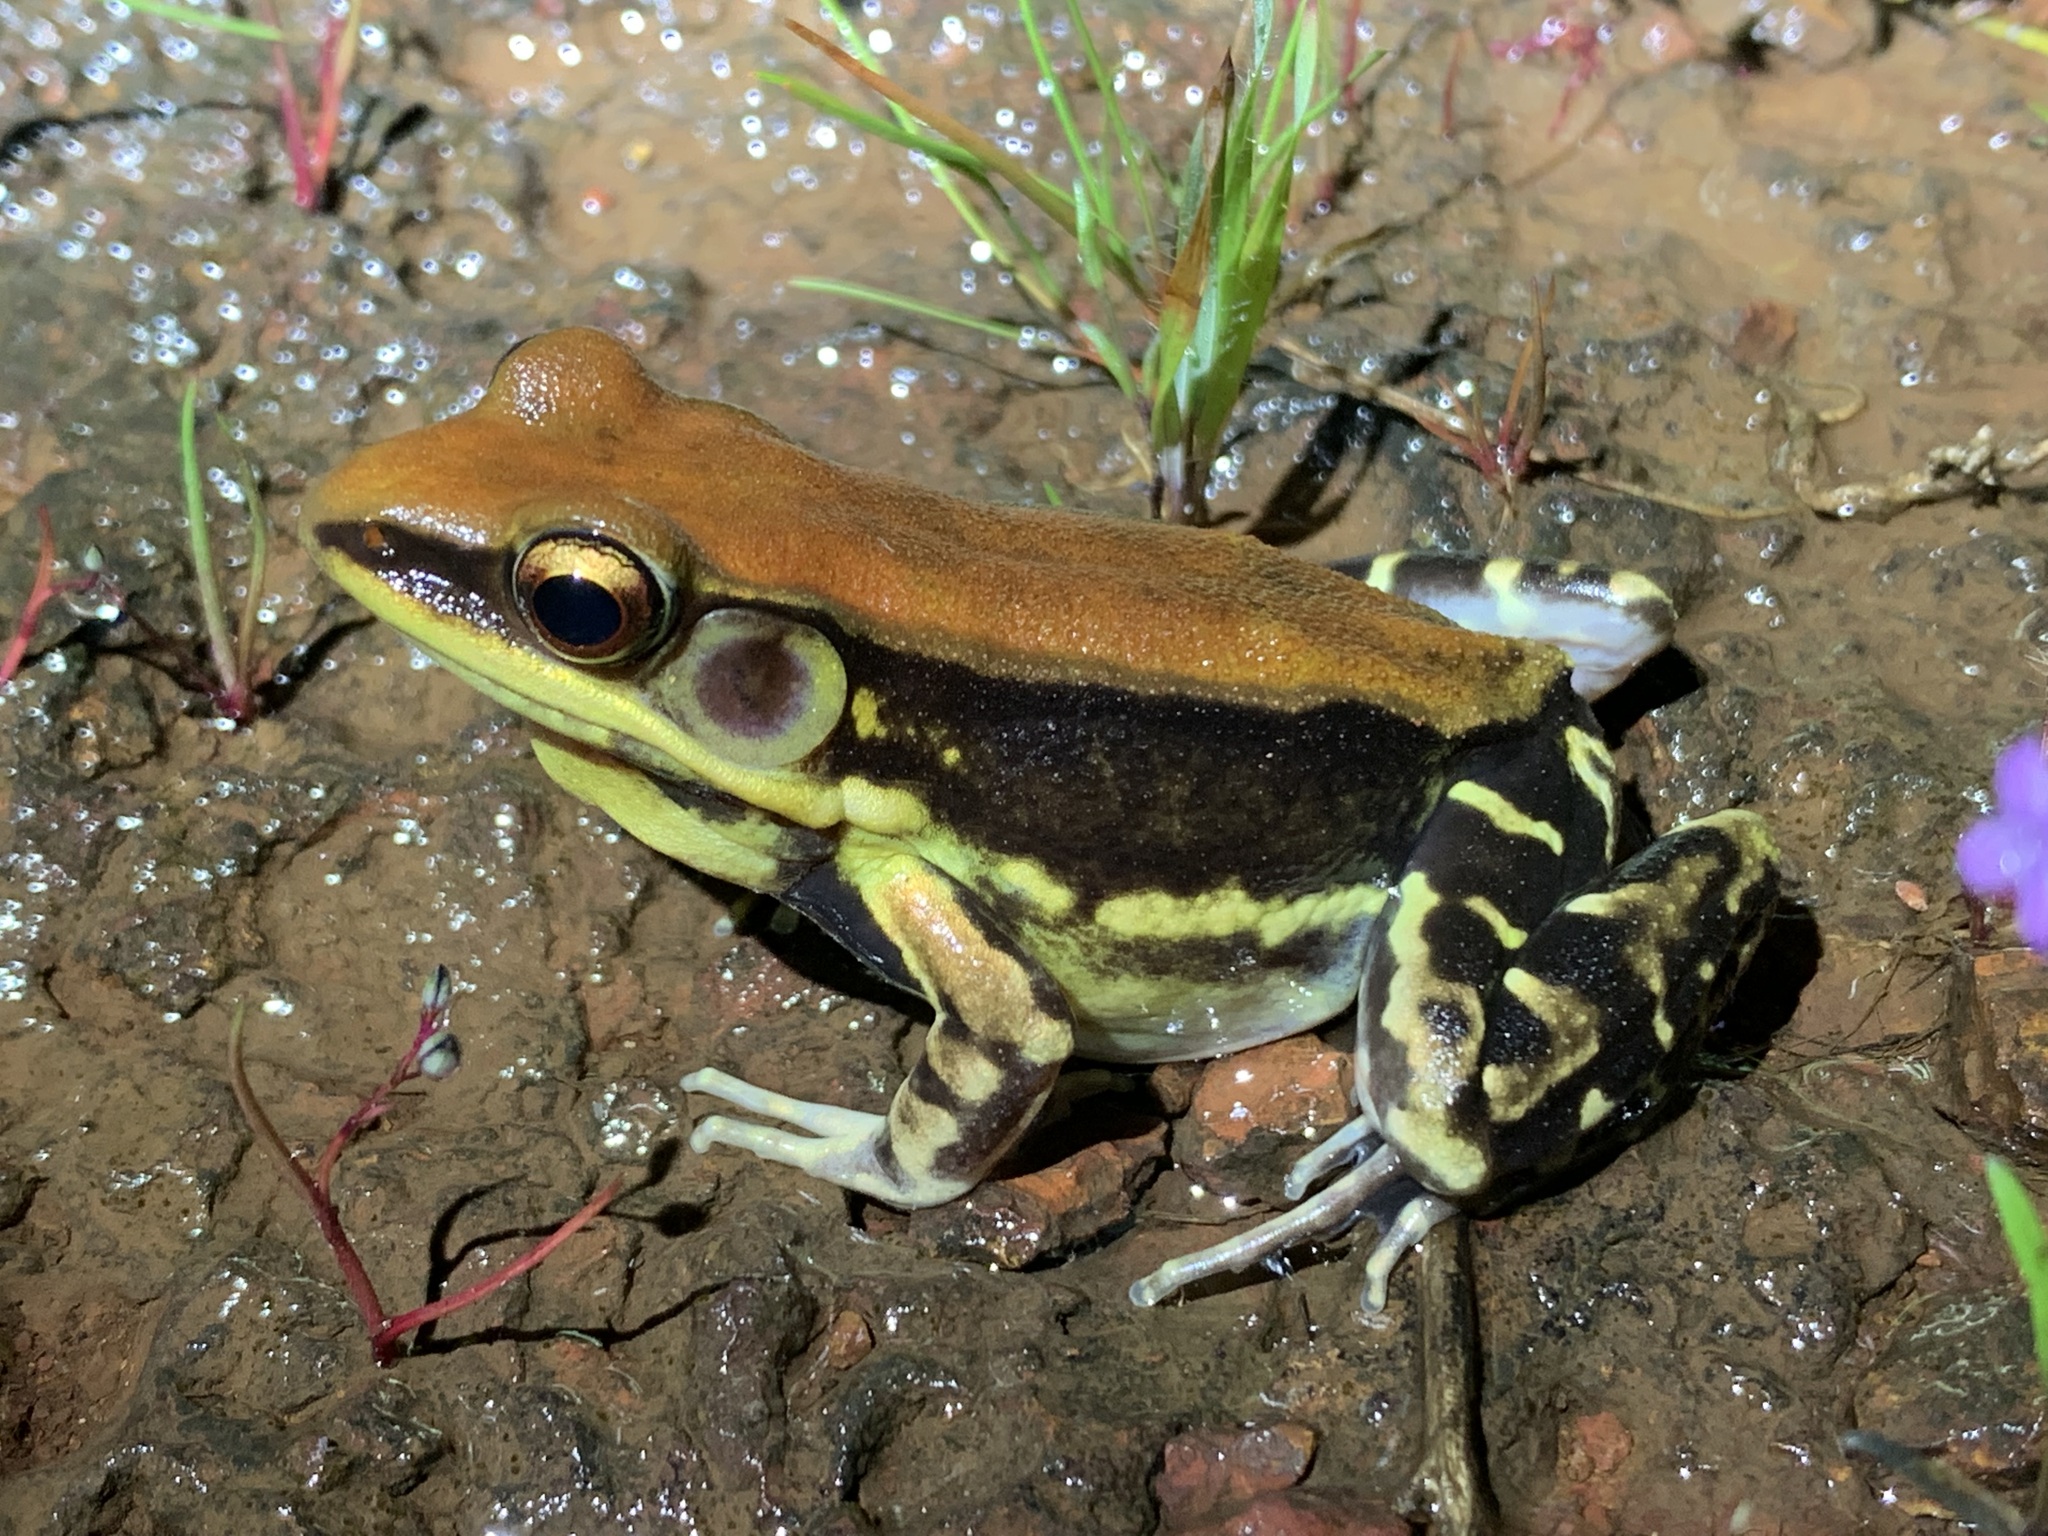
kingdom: Animalia
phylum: Chordata
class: Amphibia
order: Anura
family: Ranidae
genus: Hydrophylax
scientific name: Hydrophylax bahuvistara
